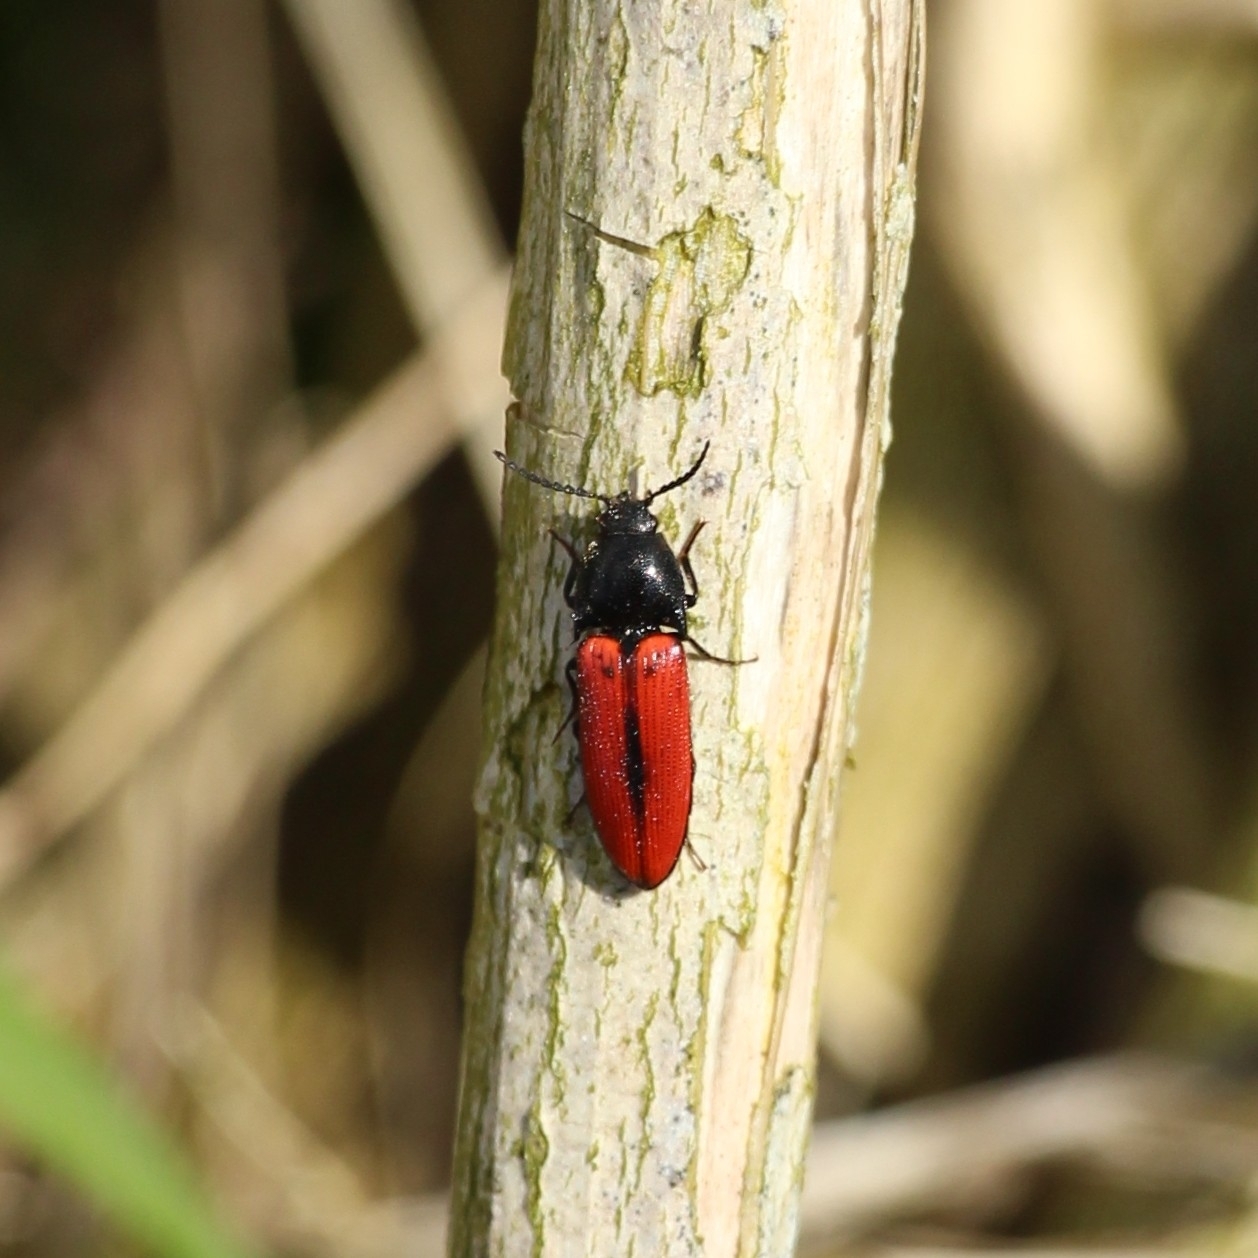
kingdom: Animalia
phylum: Arthropoda
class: Insecta
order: Coleoptera
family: Elateridae
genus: Ampedus
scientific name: Ampedus sanguinolentus
